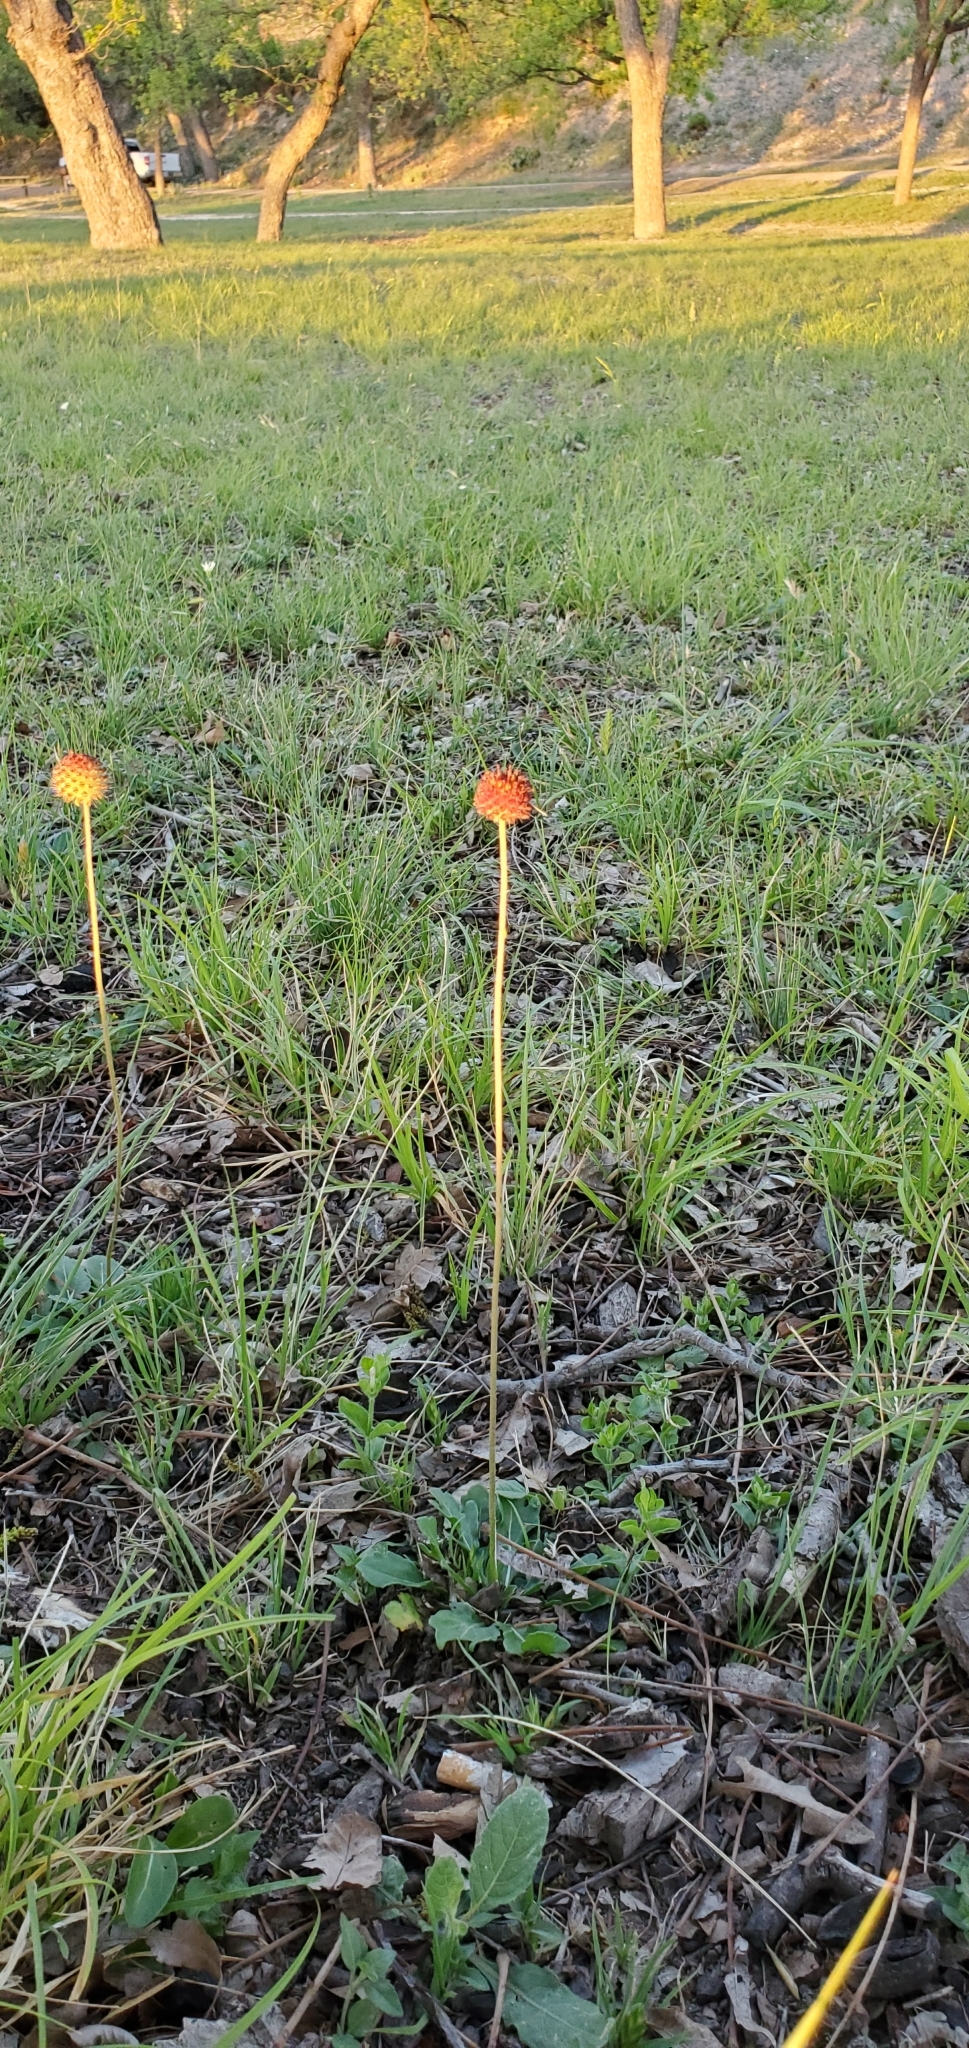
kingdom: Plantae
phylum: Tracheophyta
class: Magnoliopsida
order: Asterales
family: Asteraceae
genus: Gaillardia
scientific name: Gaillardia suavis
